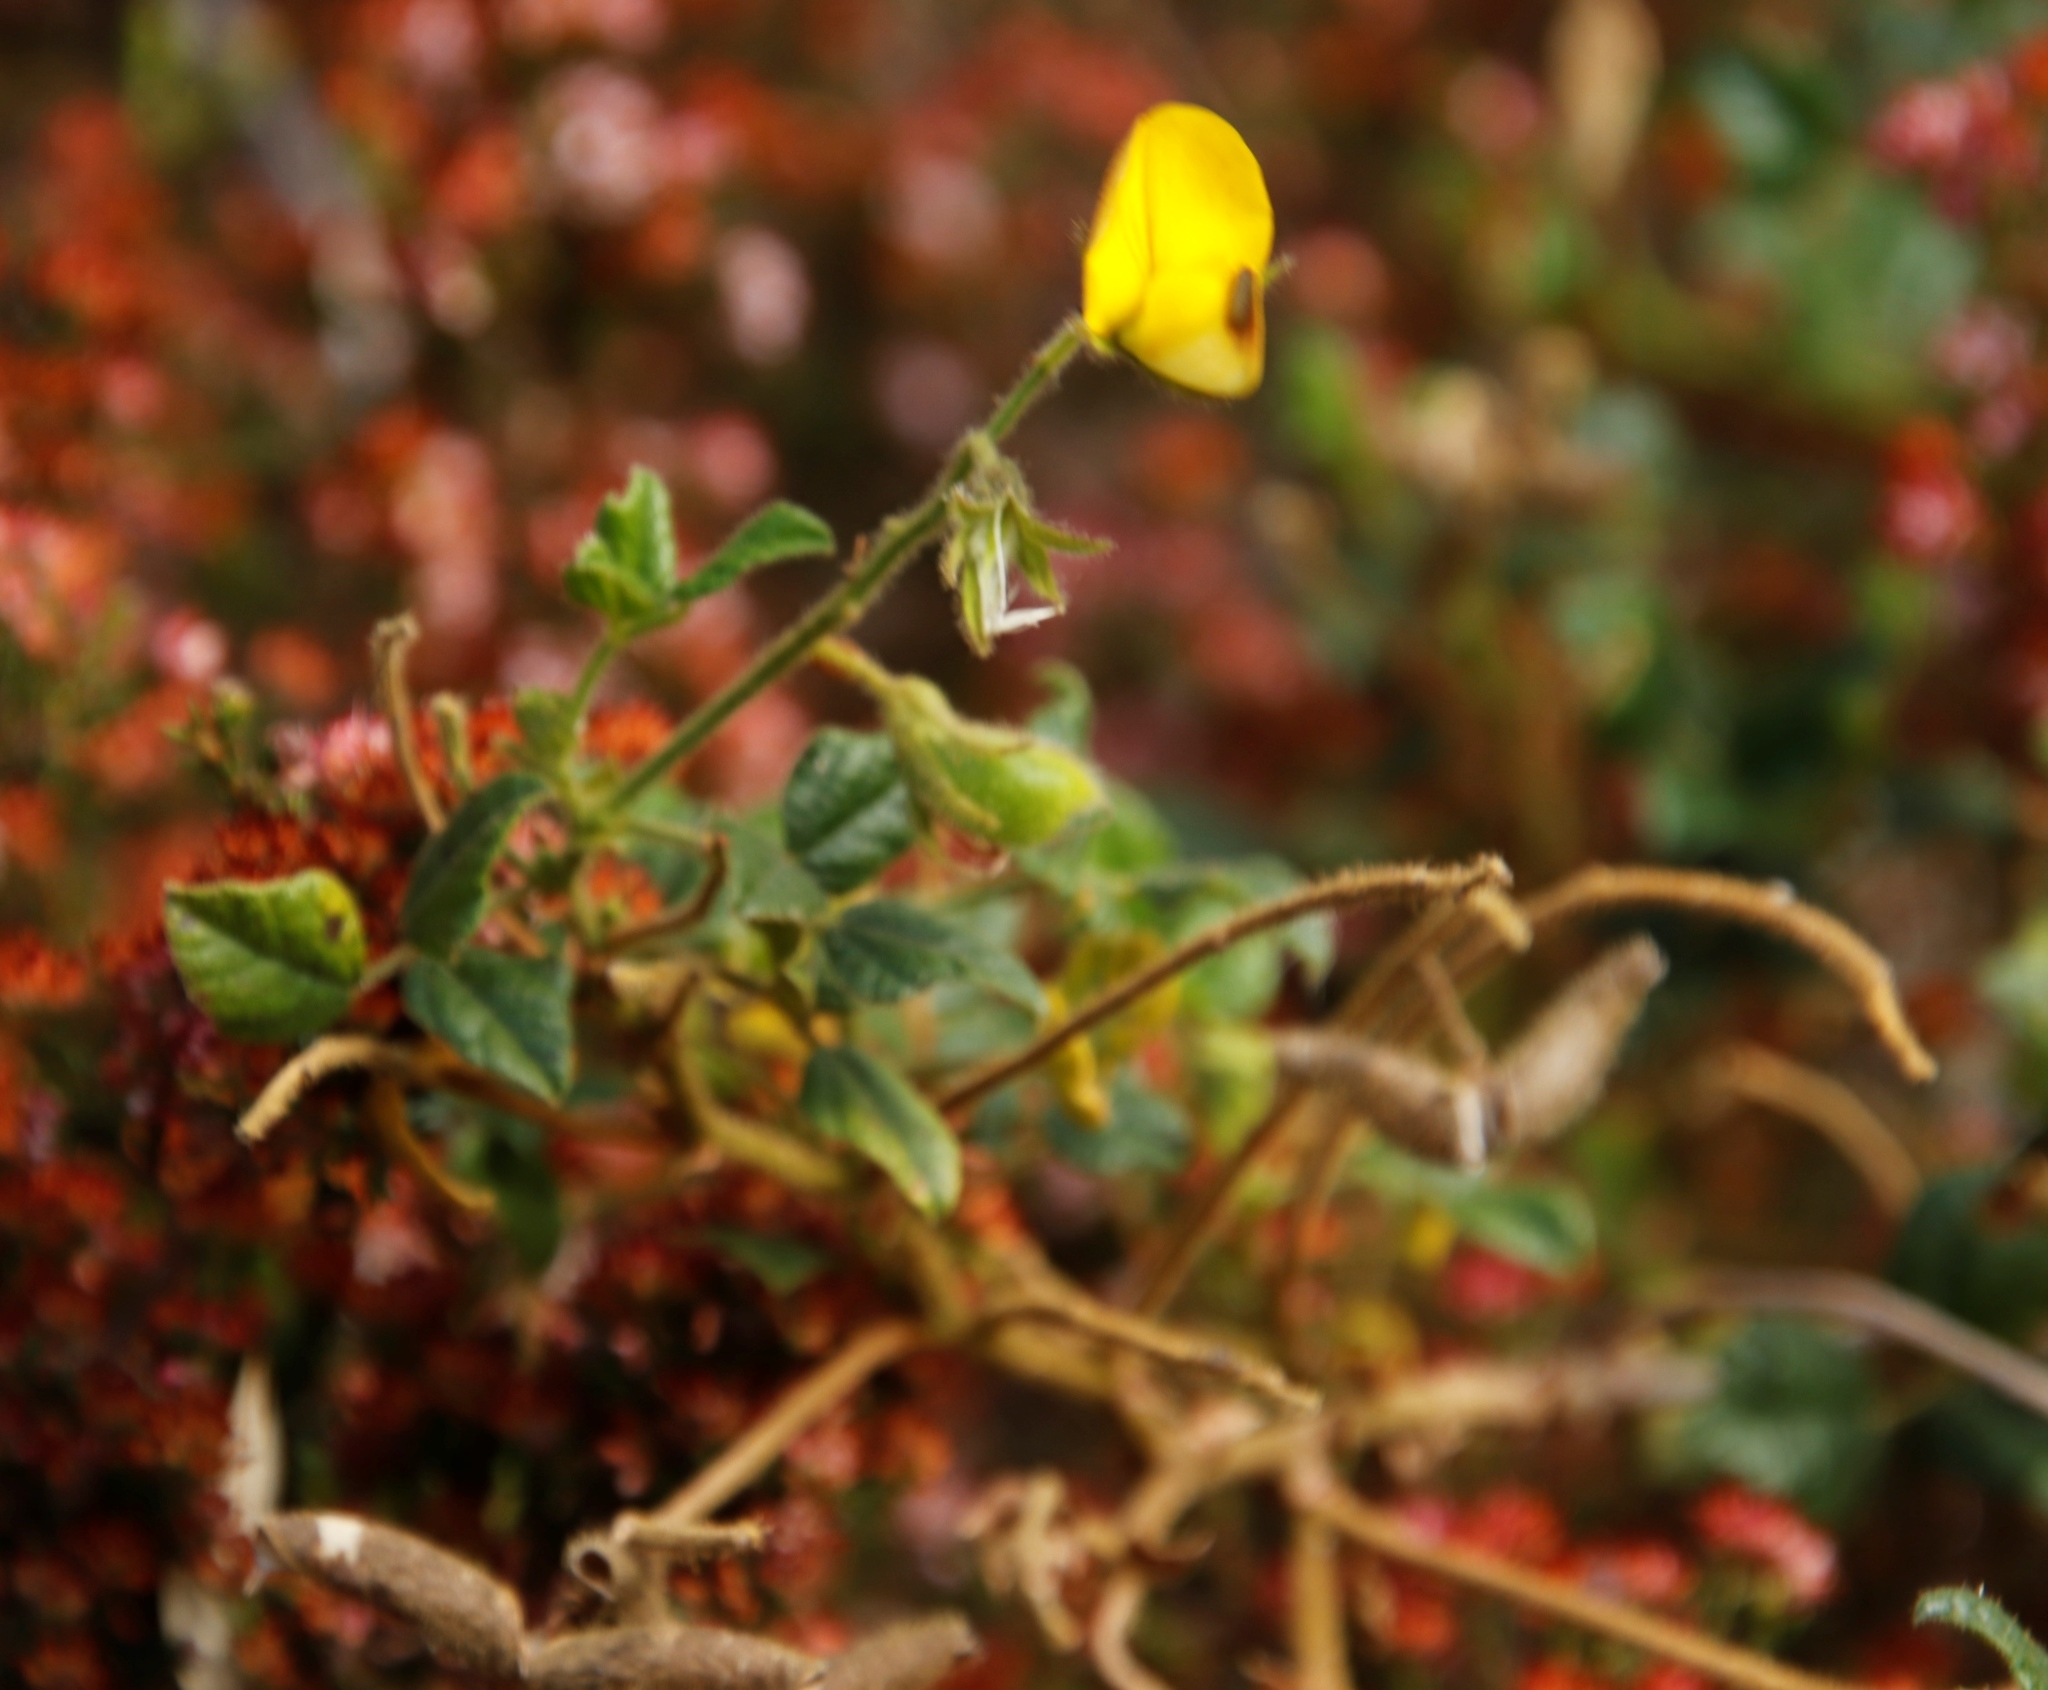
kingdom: Plantae
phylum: Tracheophyta
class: Magnoliopsida
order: Fabales
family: Fabaceae
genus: Bolusafra
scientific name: Bolusafra bituminosa
